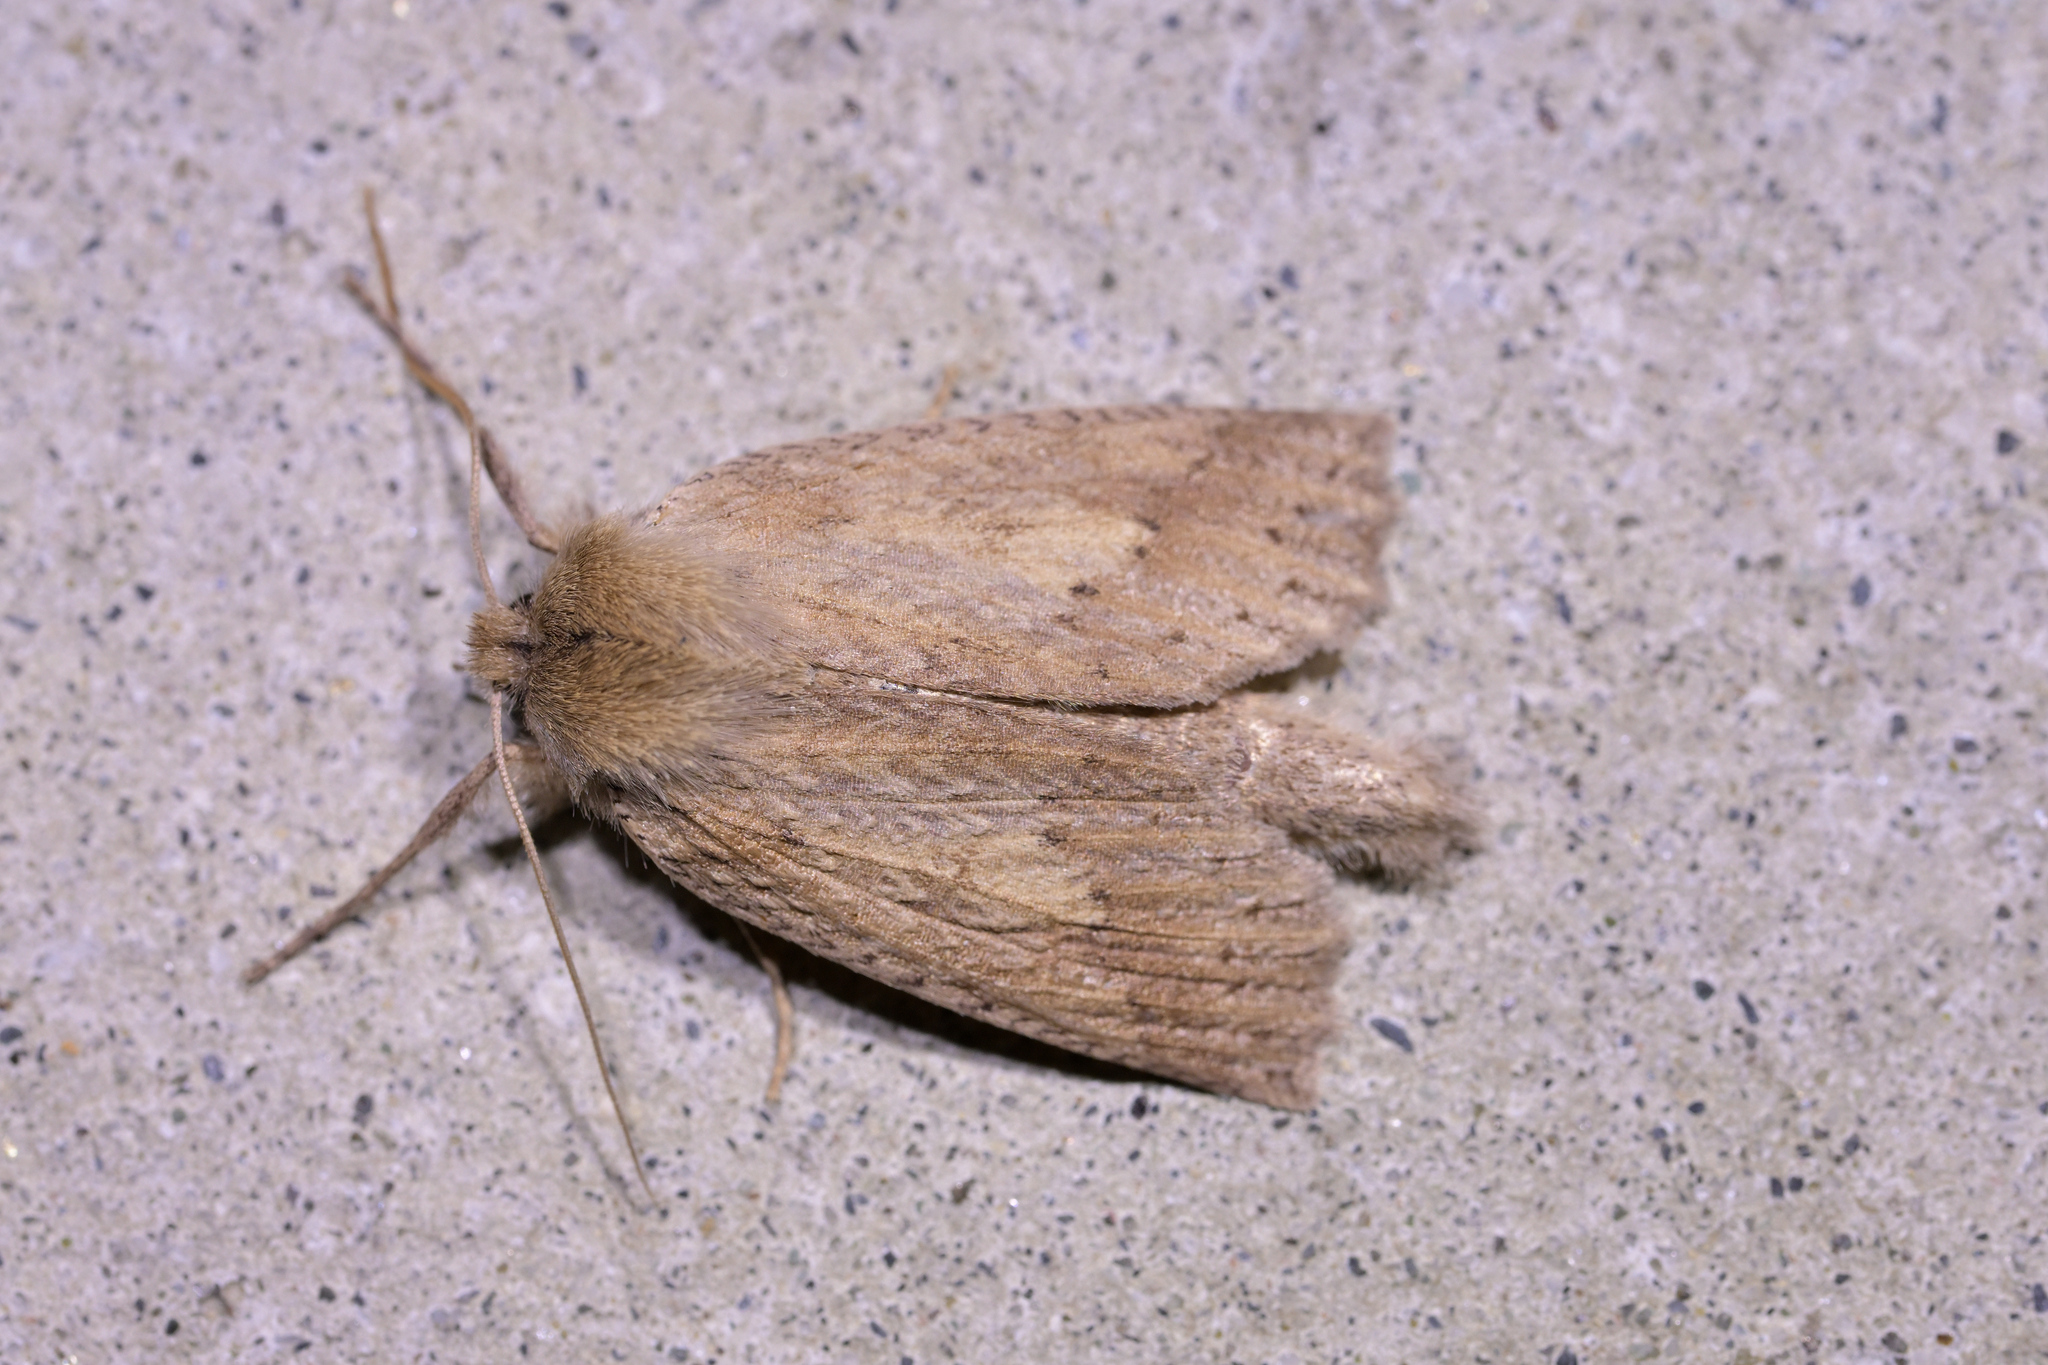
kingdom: Animalia
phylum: Arthropoda
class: Insecta
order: Lepidoptera
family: Geometridae
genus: Declana
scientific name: Declana leptomera
